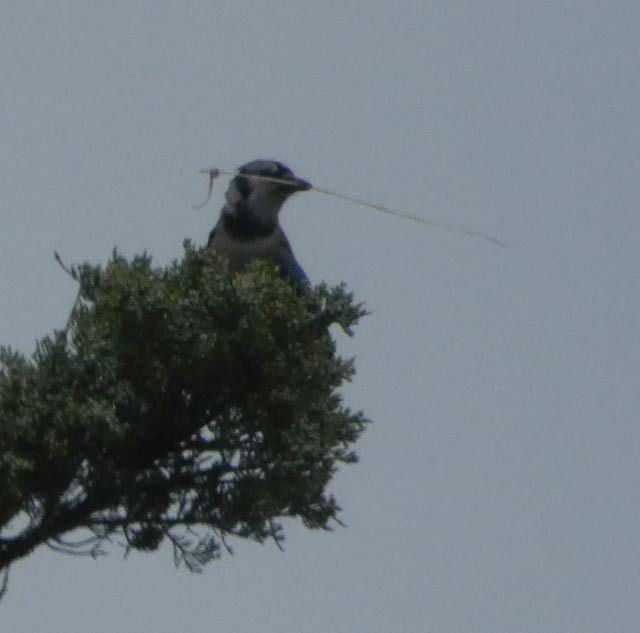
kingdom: Animalia
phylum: Chordata
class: Aves
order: Passeriformes
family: Corvidae
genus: Cyanocitta
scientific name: Cyanocitta cristata
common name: Blue jay
